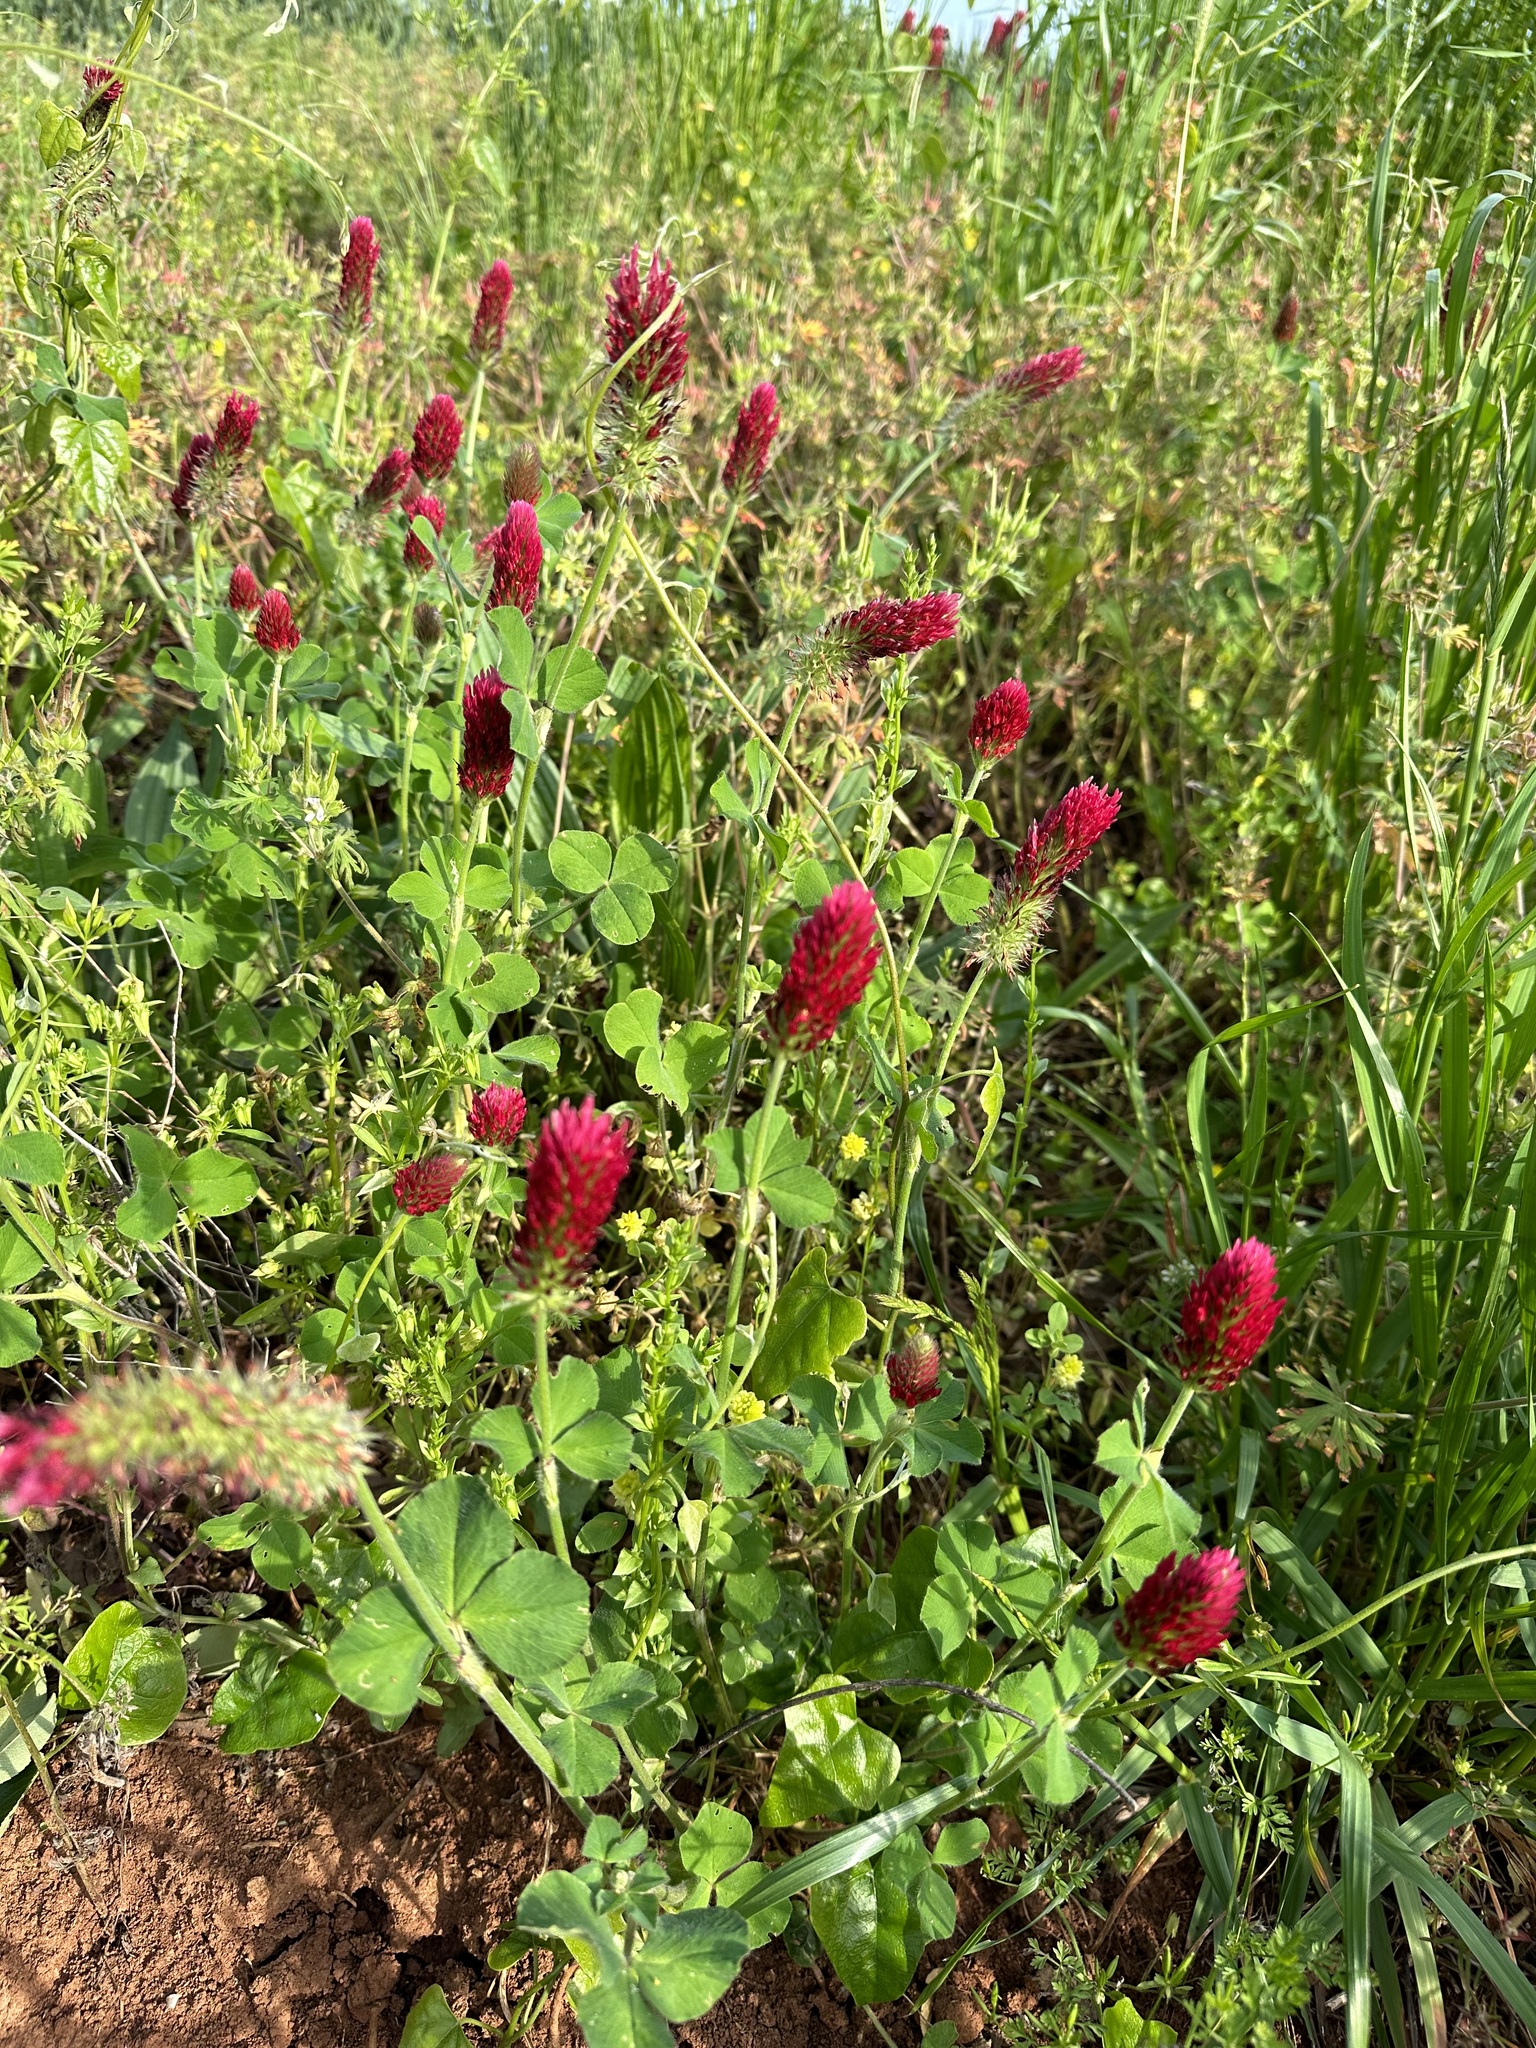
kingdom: Plantae
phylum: Tracheophyta
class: Magnoliopsida
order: Fabales
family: Fabaceae
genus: Trifolium
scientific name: Trifolium incarnatum
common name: Crimson clover
